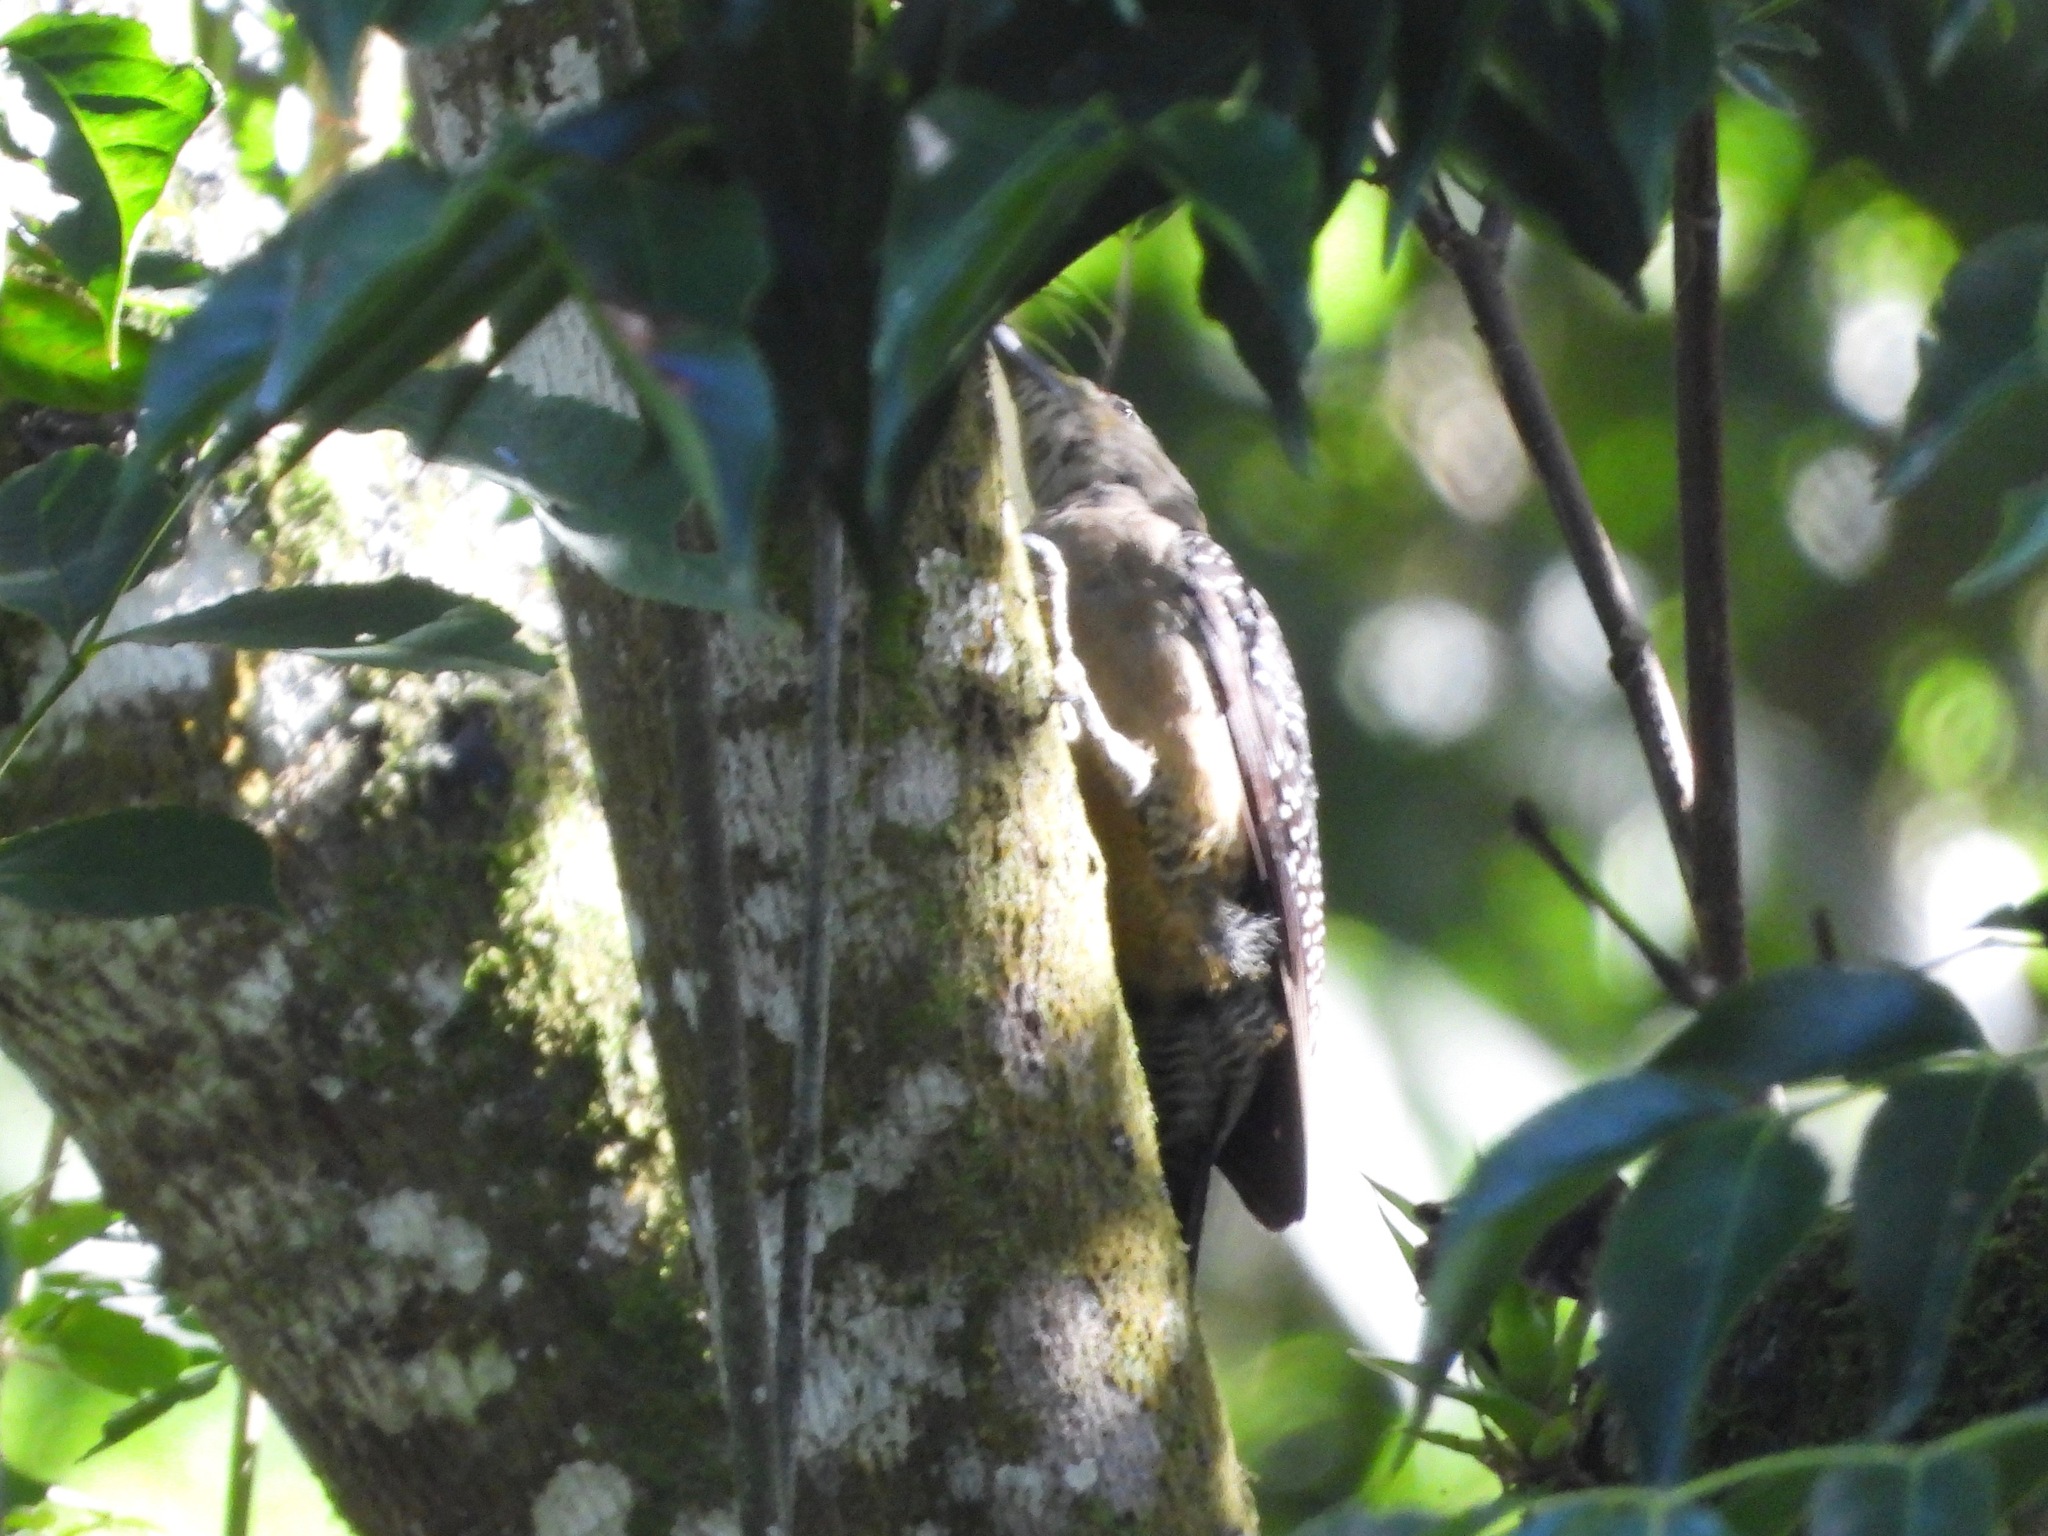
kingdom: Animalia
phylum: Chordata
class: Aves
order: Piciformes
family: Picidae
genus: Melanerpes
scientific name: Melanerpes santacruzi
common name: Velasquez's woodpecker
